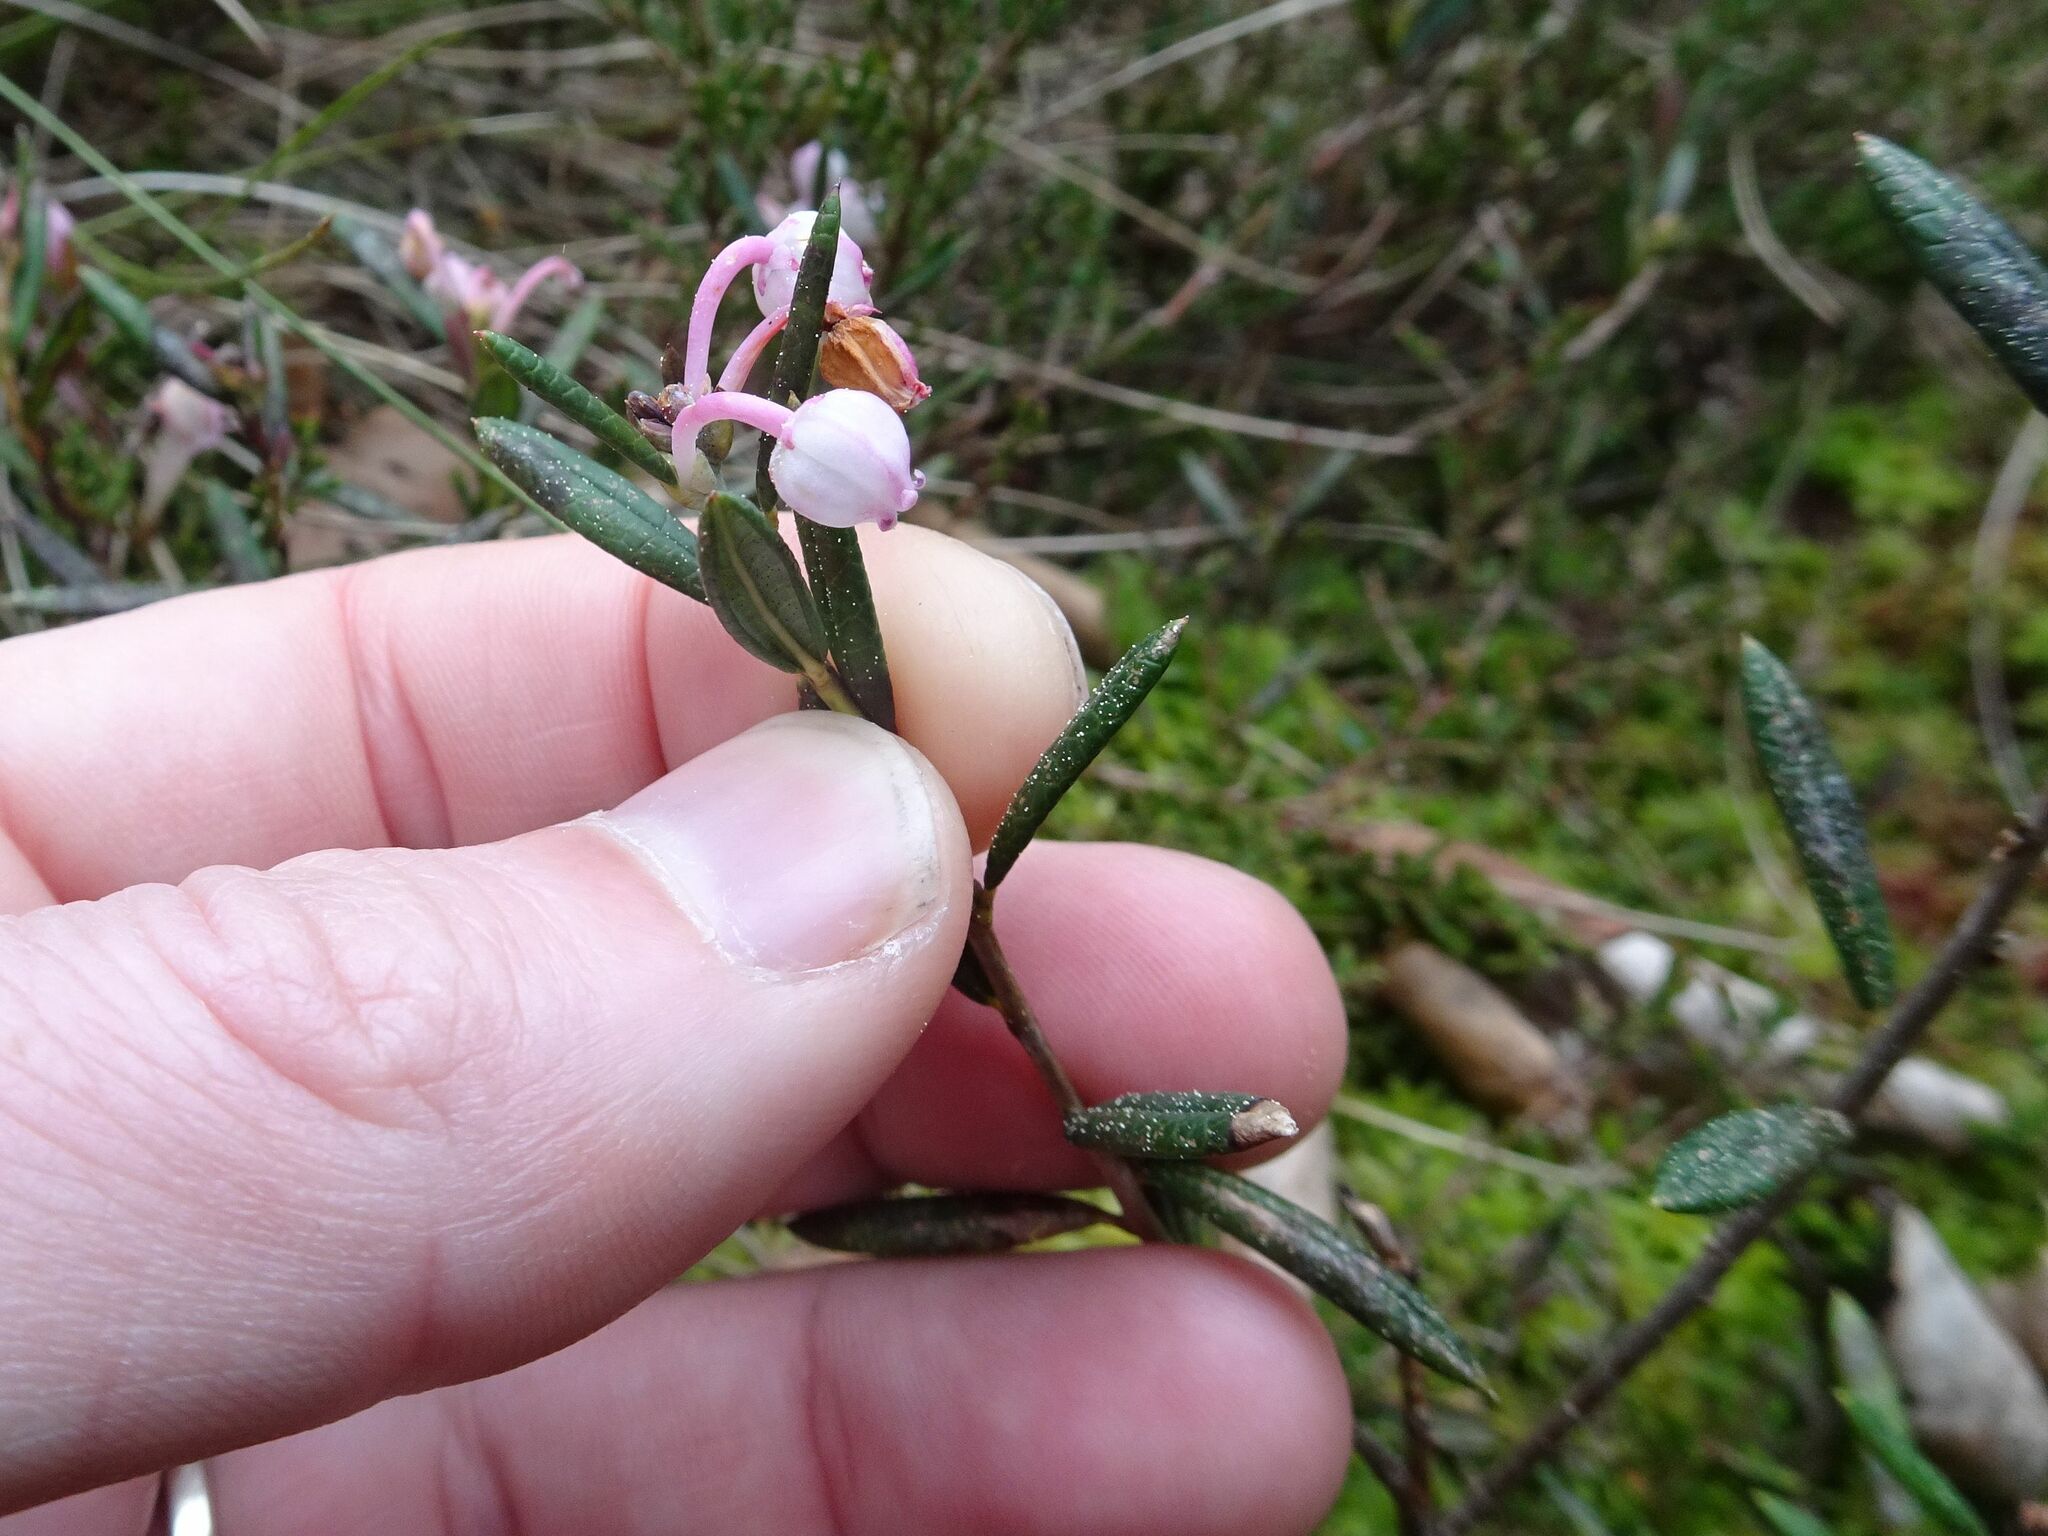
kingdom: Plantae
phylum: Tracheophyta
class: Magnoliopsida
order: Ericales
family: Ericaceae
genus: Andromeda
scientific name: Andromeda polifolia
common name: Bog-rosemary
